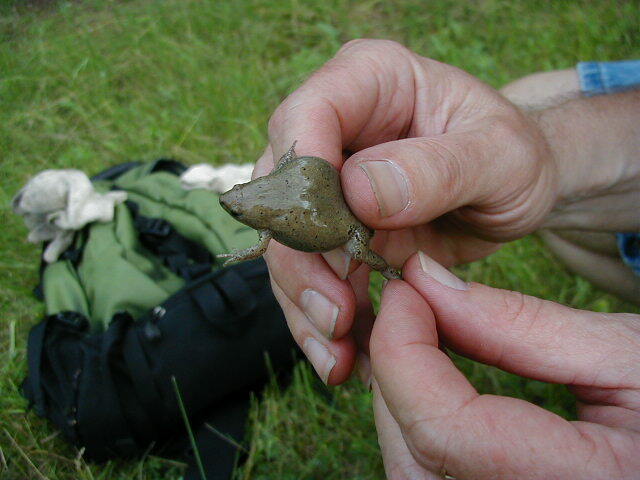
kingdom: Animalia
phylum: Chordata
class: Amphibia
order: Anura
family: Microhylidae
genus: Gastrophryne
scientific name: Gastrophryne olivacea
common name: Great plains narrow-mouthed toad
